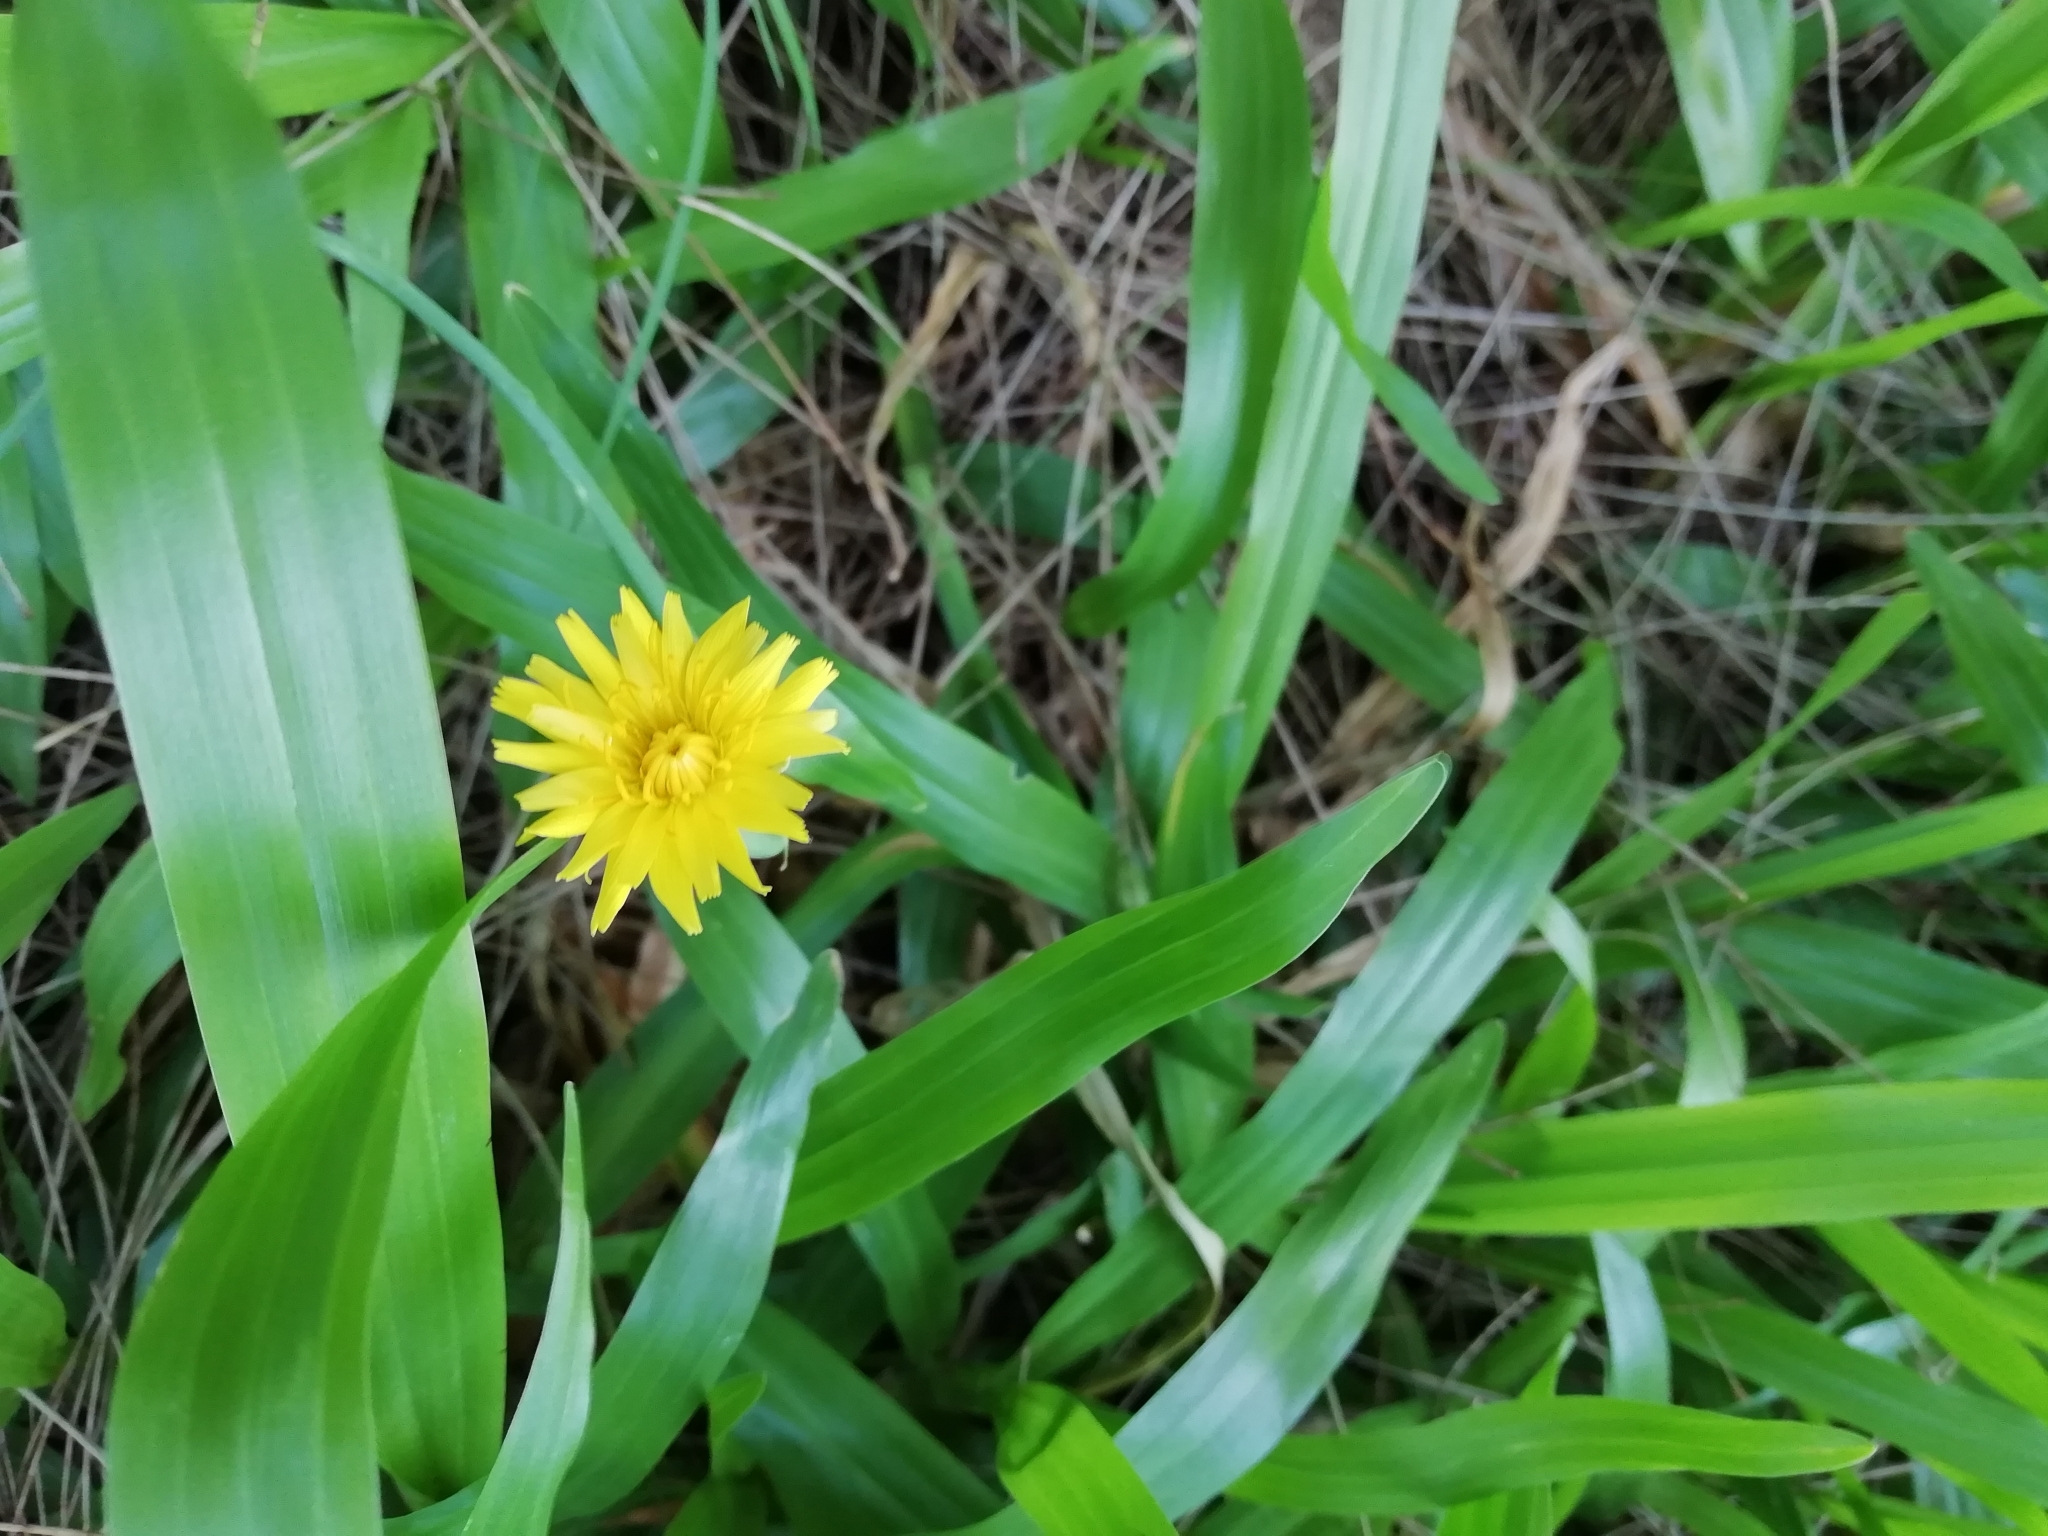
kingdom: Plantae
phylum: Tracheophyta
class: Magnoliopsida
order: Asterales
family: Asteraceae
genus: Hypochaeris
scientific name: Hypochaeris radicata
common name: Flatweed
